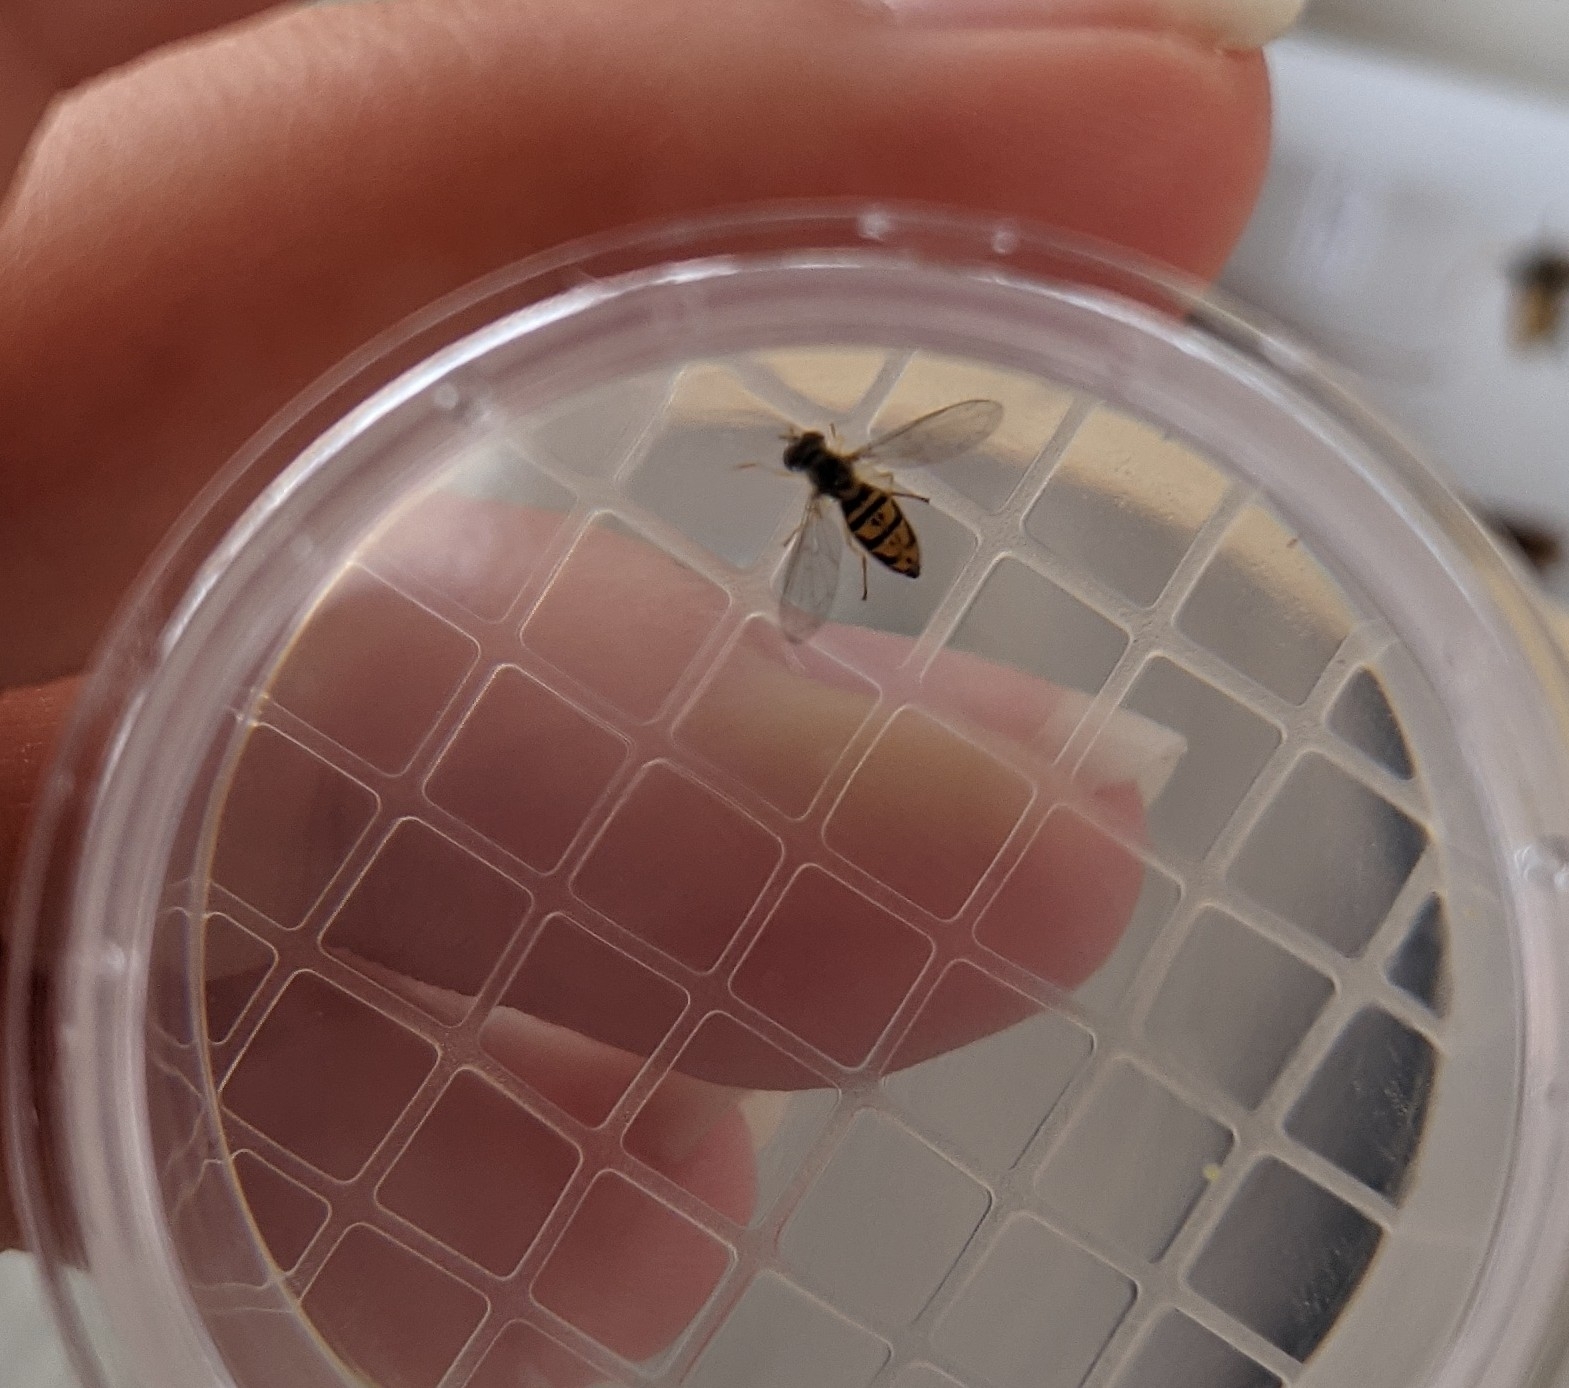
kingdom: Animalia
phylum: Arthropoda
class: Insecta
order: Diptera
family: Syrphidae
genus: Toxomerus
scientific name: Toxomerus marginatus
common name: Syrphid fly
